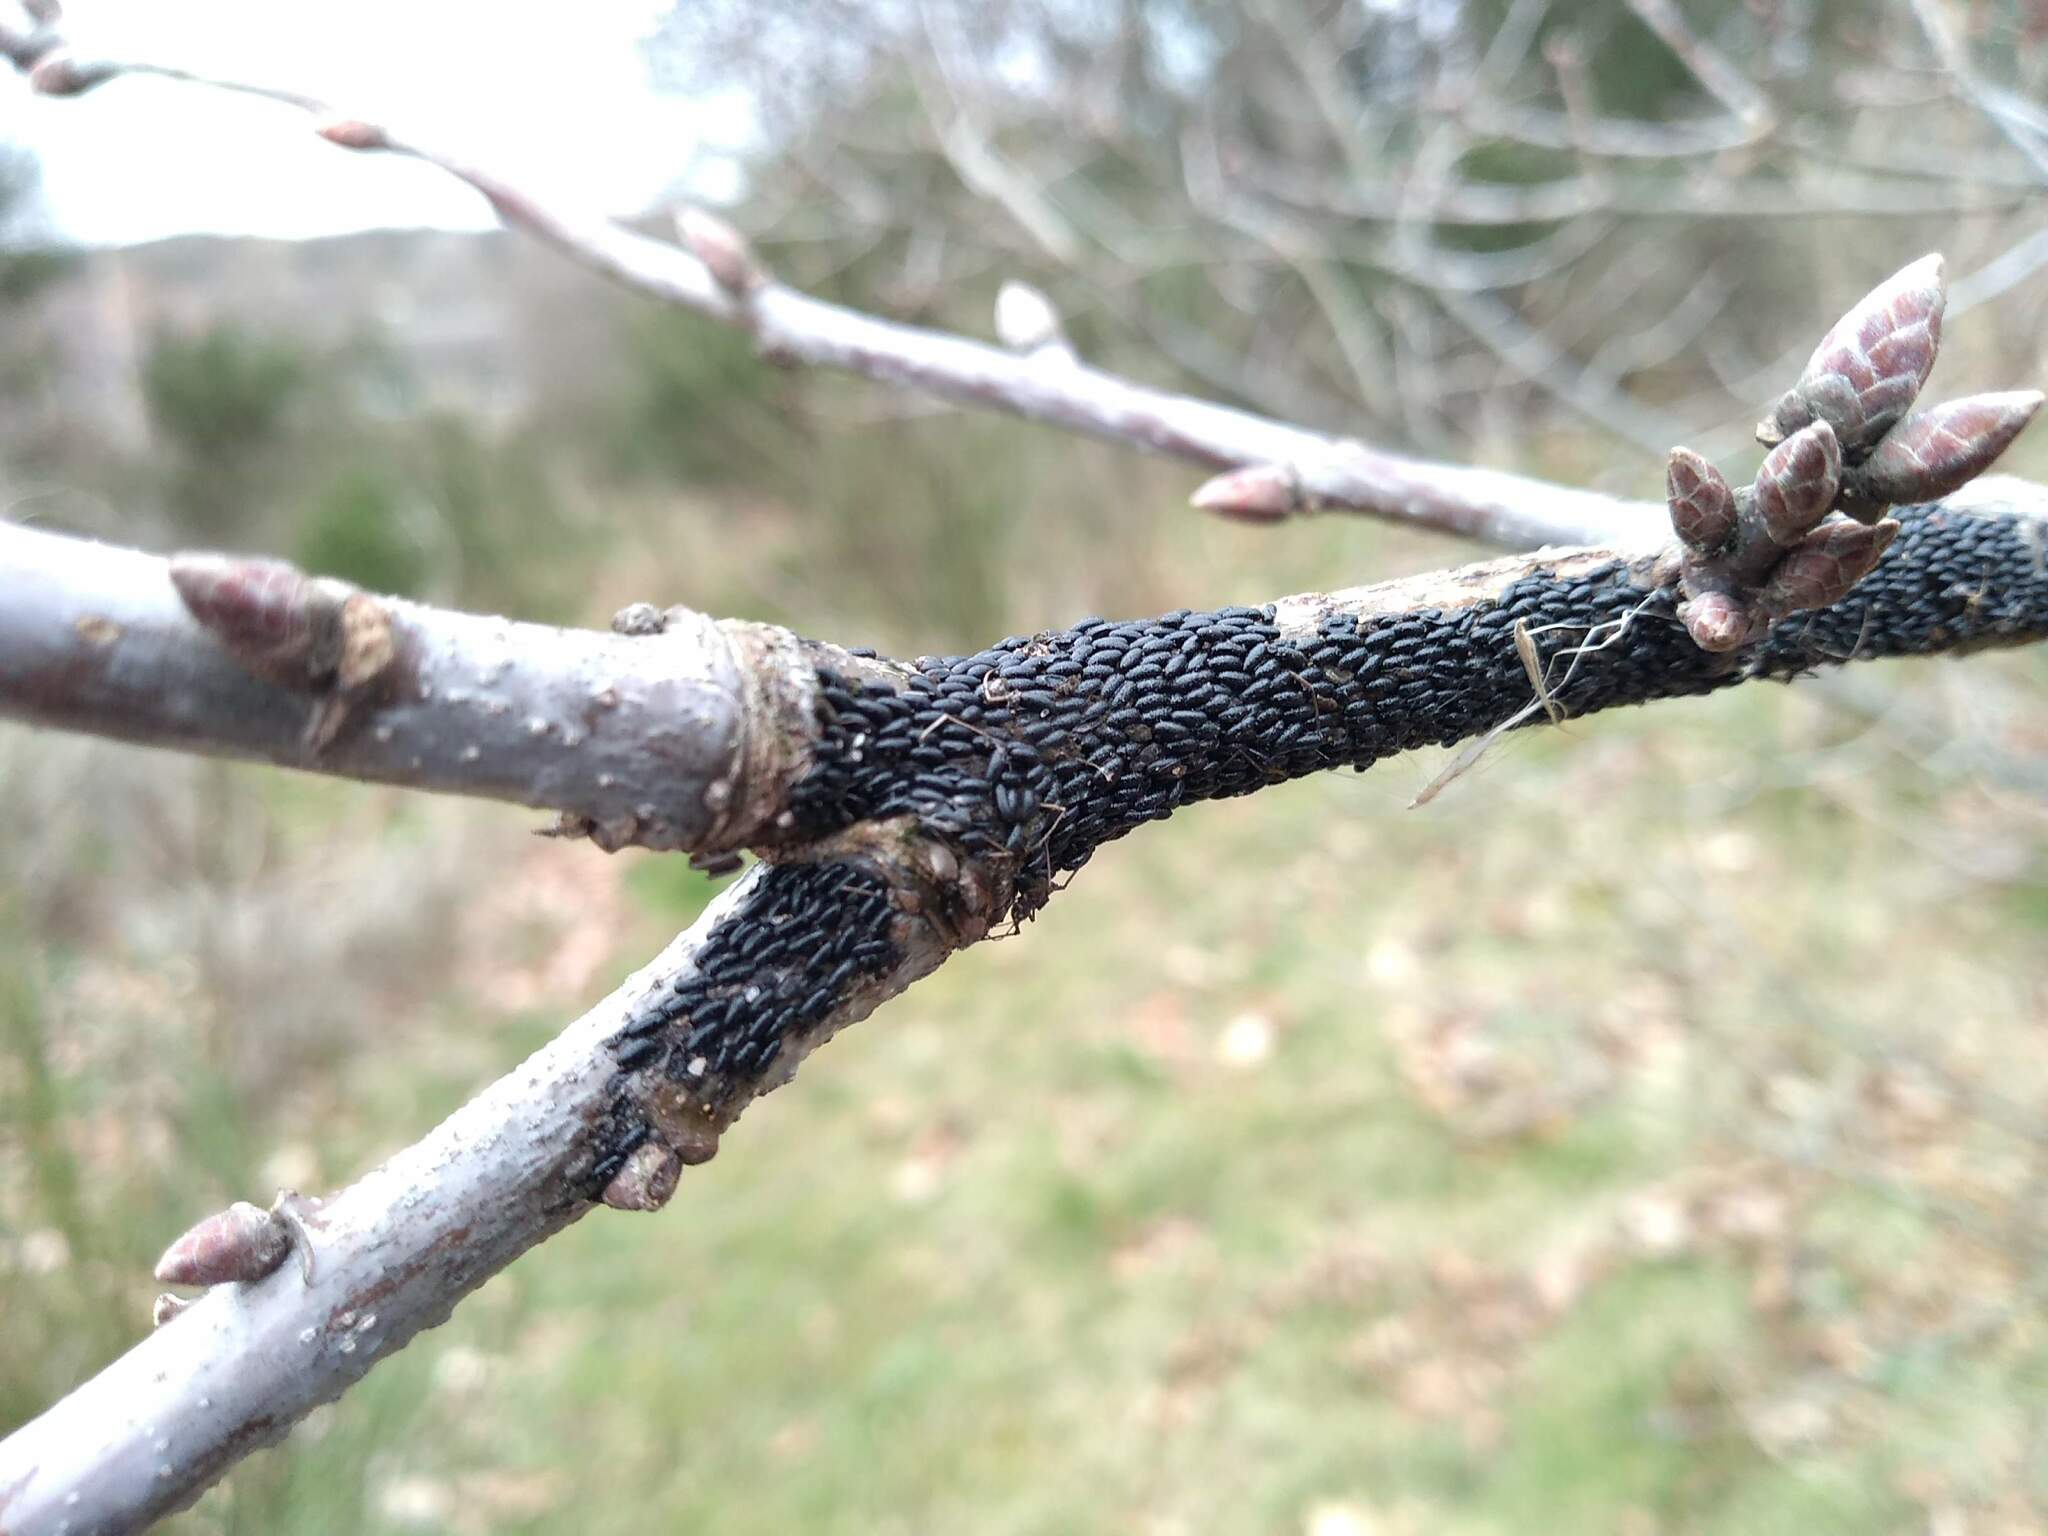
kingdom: Animalia
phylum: Arthropoda
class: Insecta
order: Hemiptera
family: Aphididae
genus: Lachnus
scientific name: Lachnus roboris
